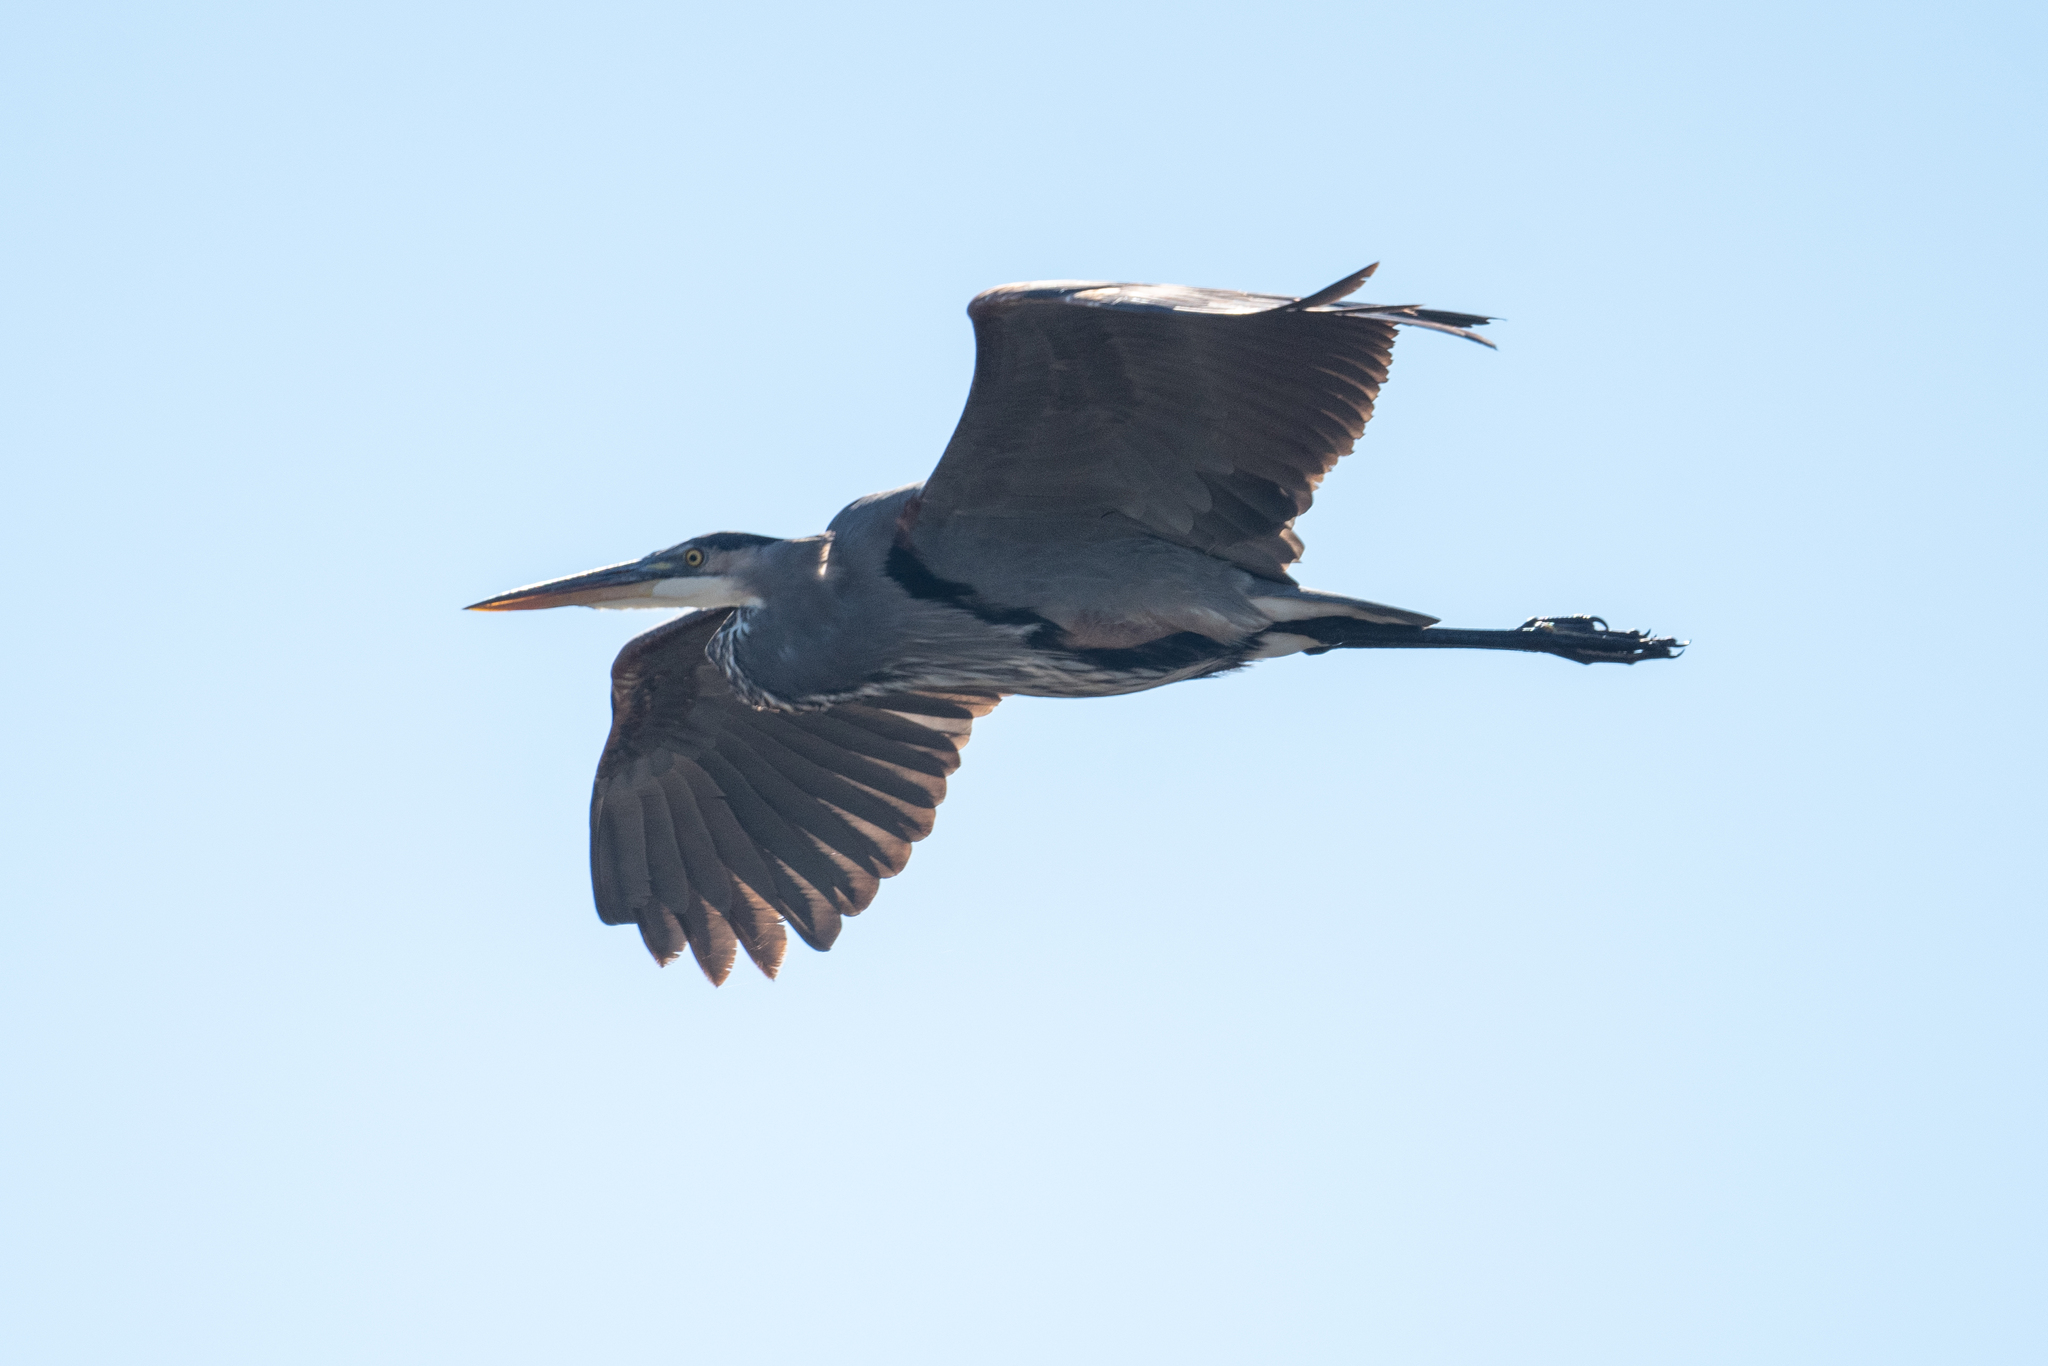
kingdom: Animalia
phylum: Chordata
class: Aves
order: Pelecaniformes
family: Ardeidae
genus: Ardea
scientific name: Ardea herodias
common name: Great blue heron
